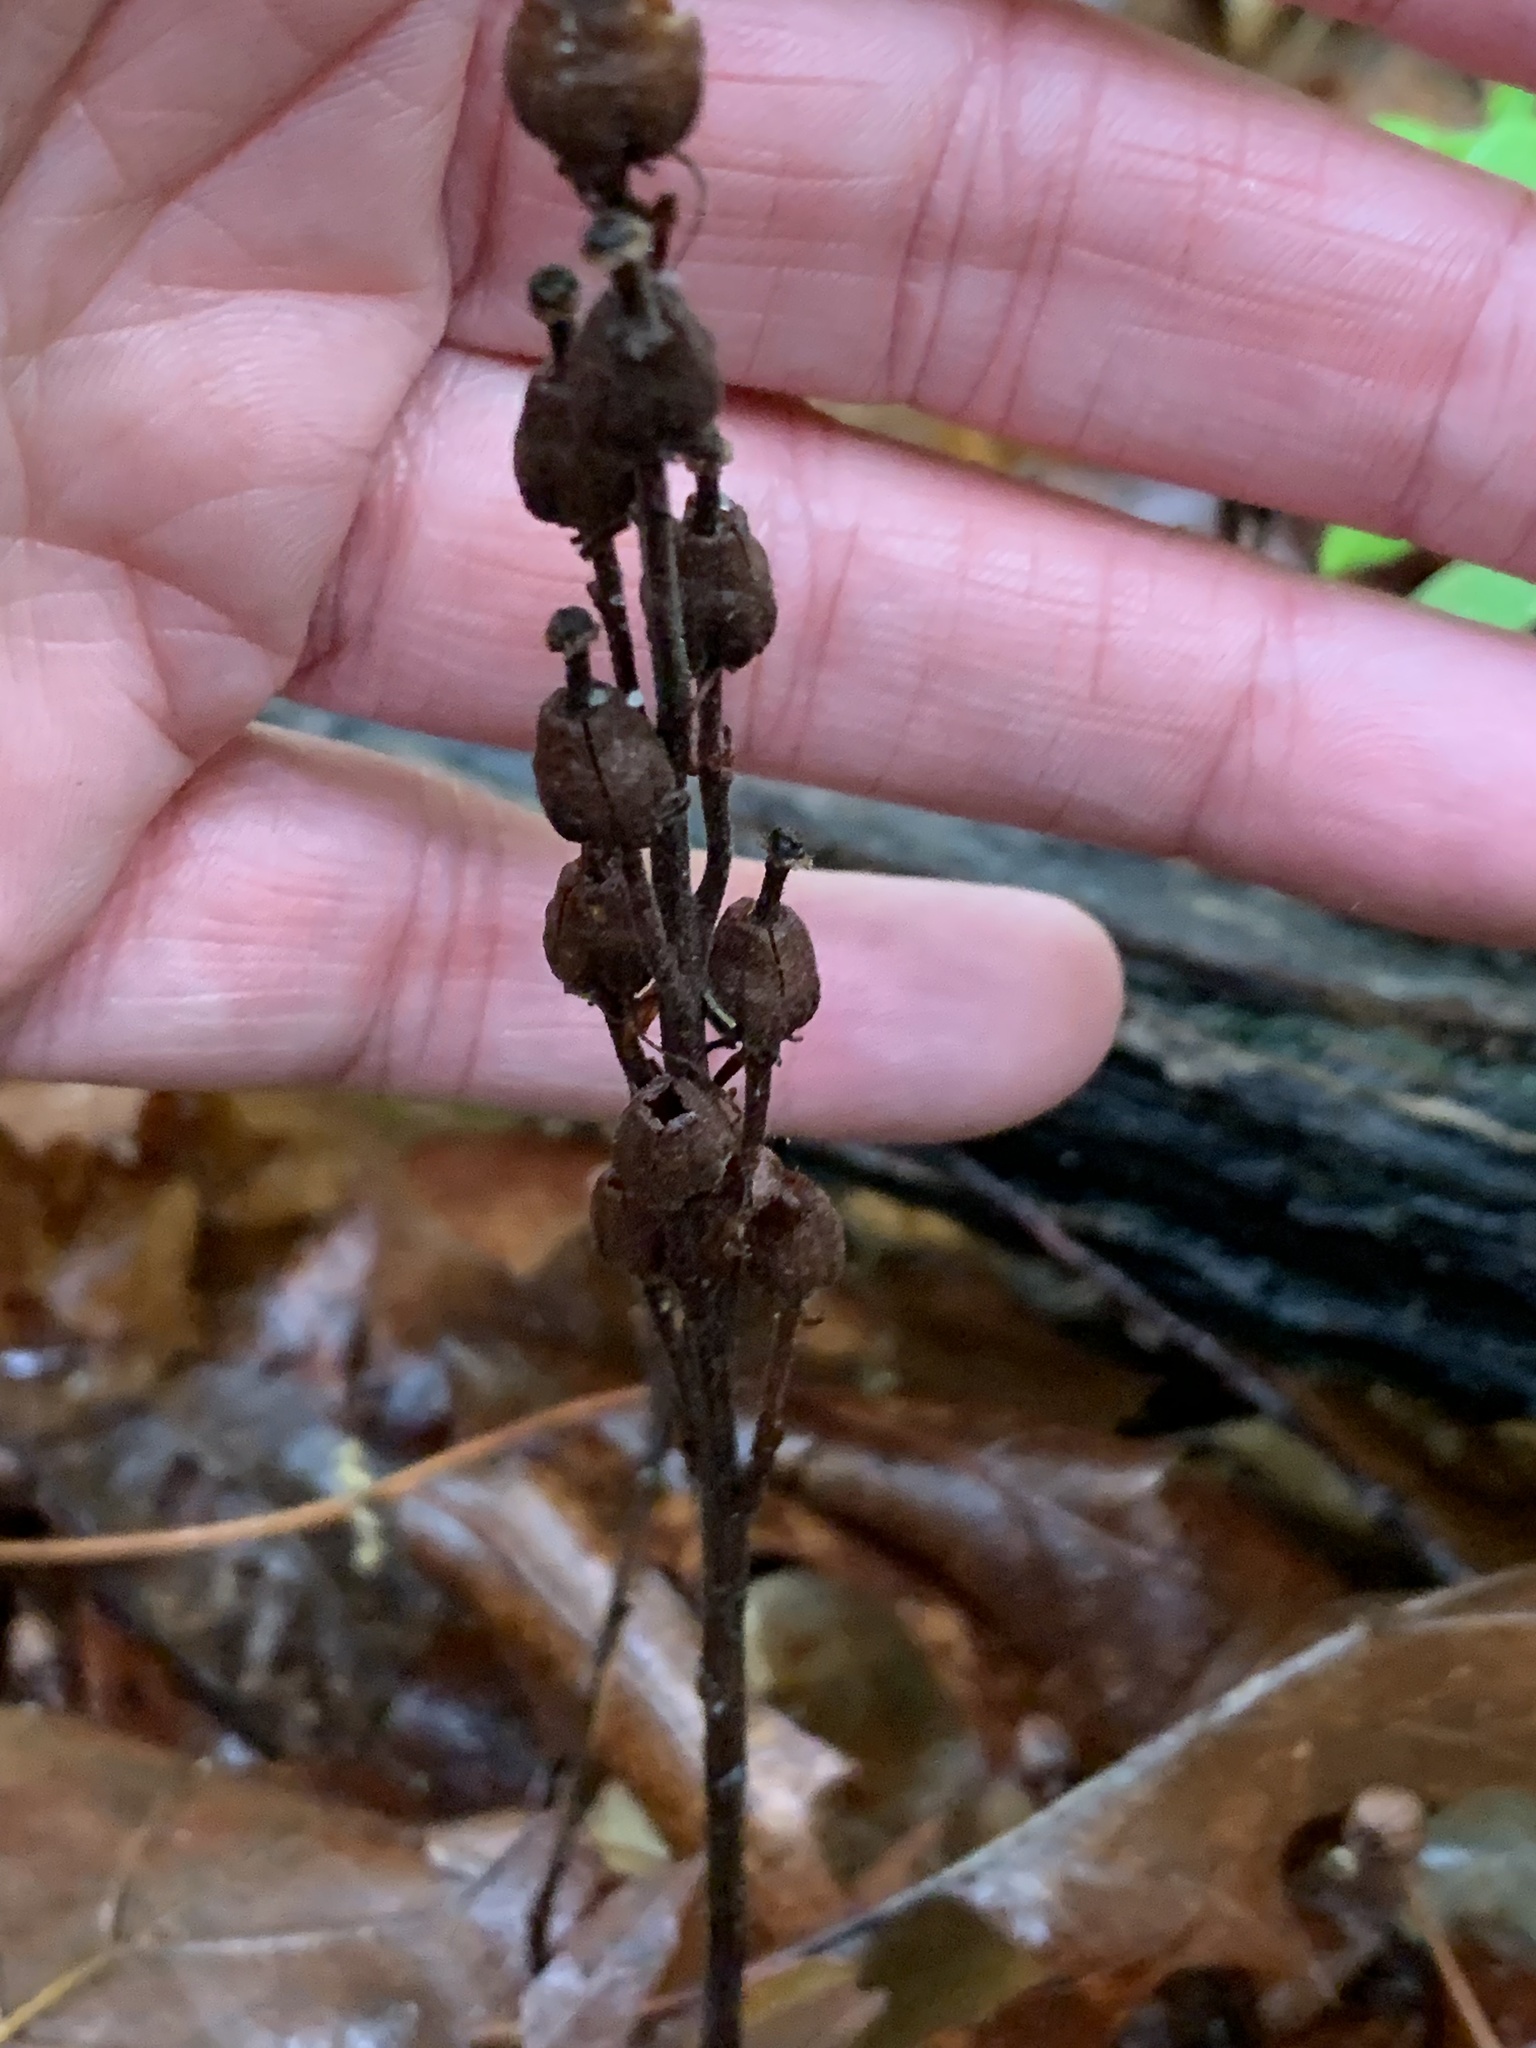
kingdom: Plantae
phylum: Tracheophyta
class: Magnoliopsida
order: Ericales
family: Ericaceae
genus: Hypopitys
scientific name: Hypopitys monotropa
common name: Yellow bird's-nest
